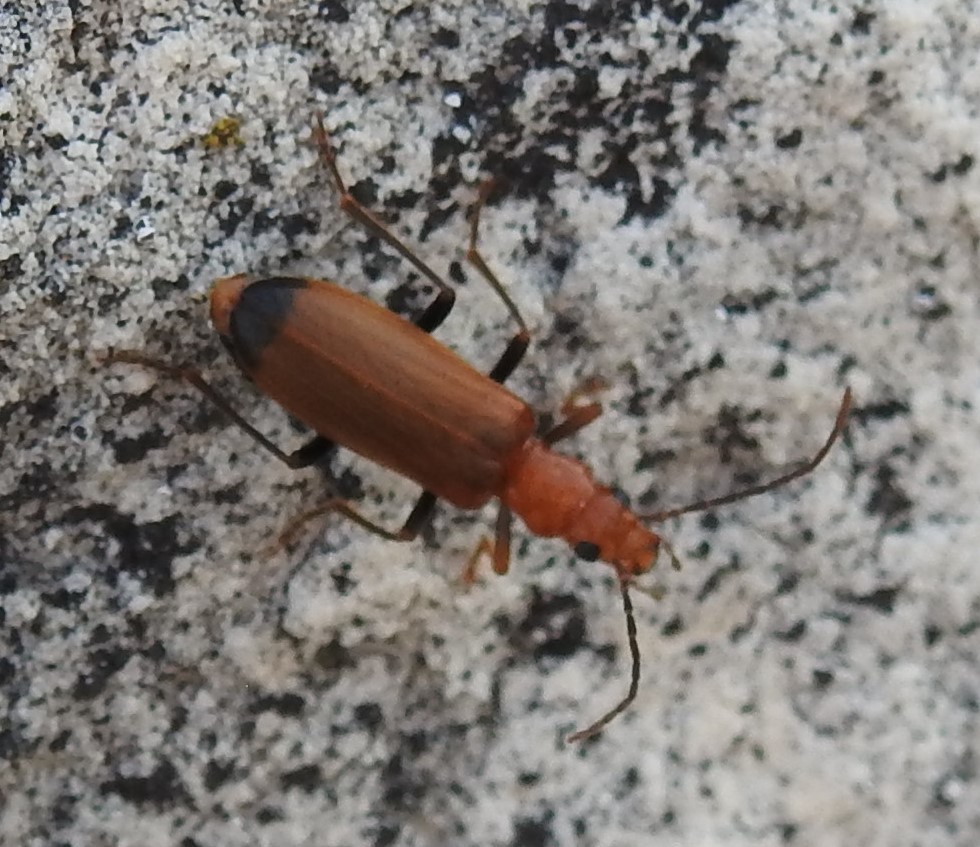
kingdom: Animalia
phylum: Arthropoda
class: Insecta
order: Coleoptera
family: Oedemeridae
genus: Nacerdes
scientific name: Nacerdes melanura
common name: Wharf borer
